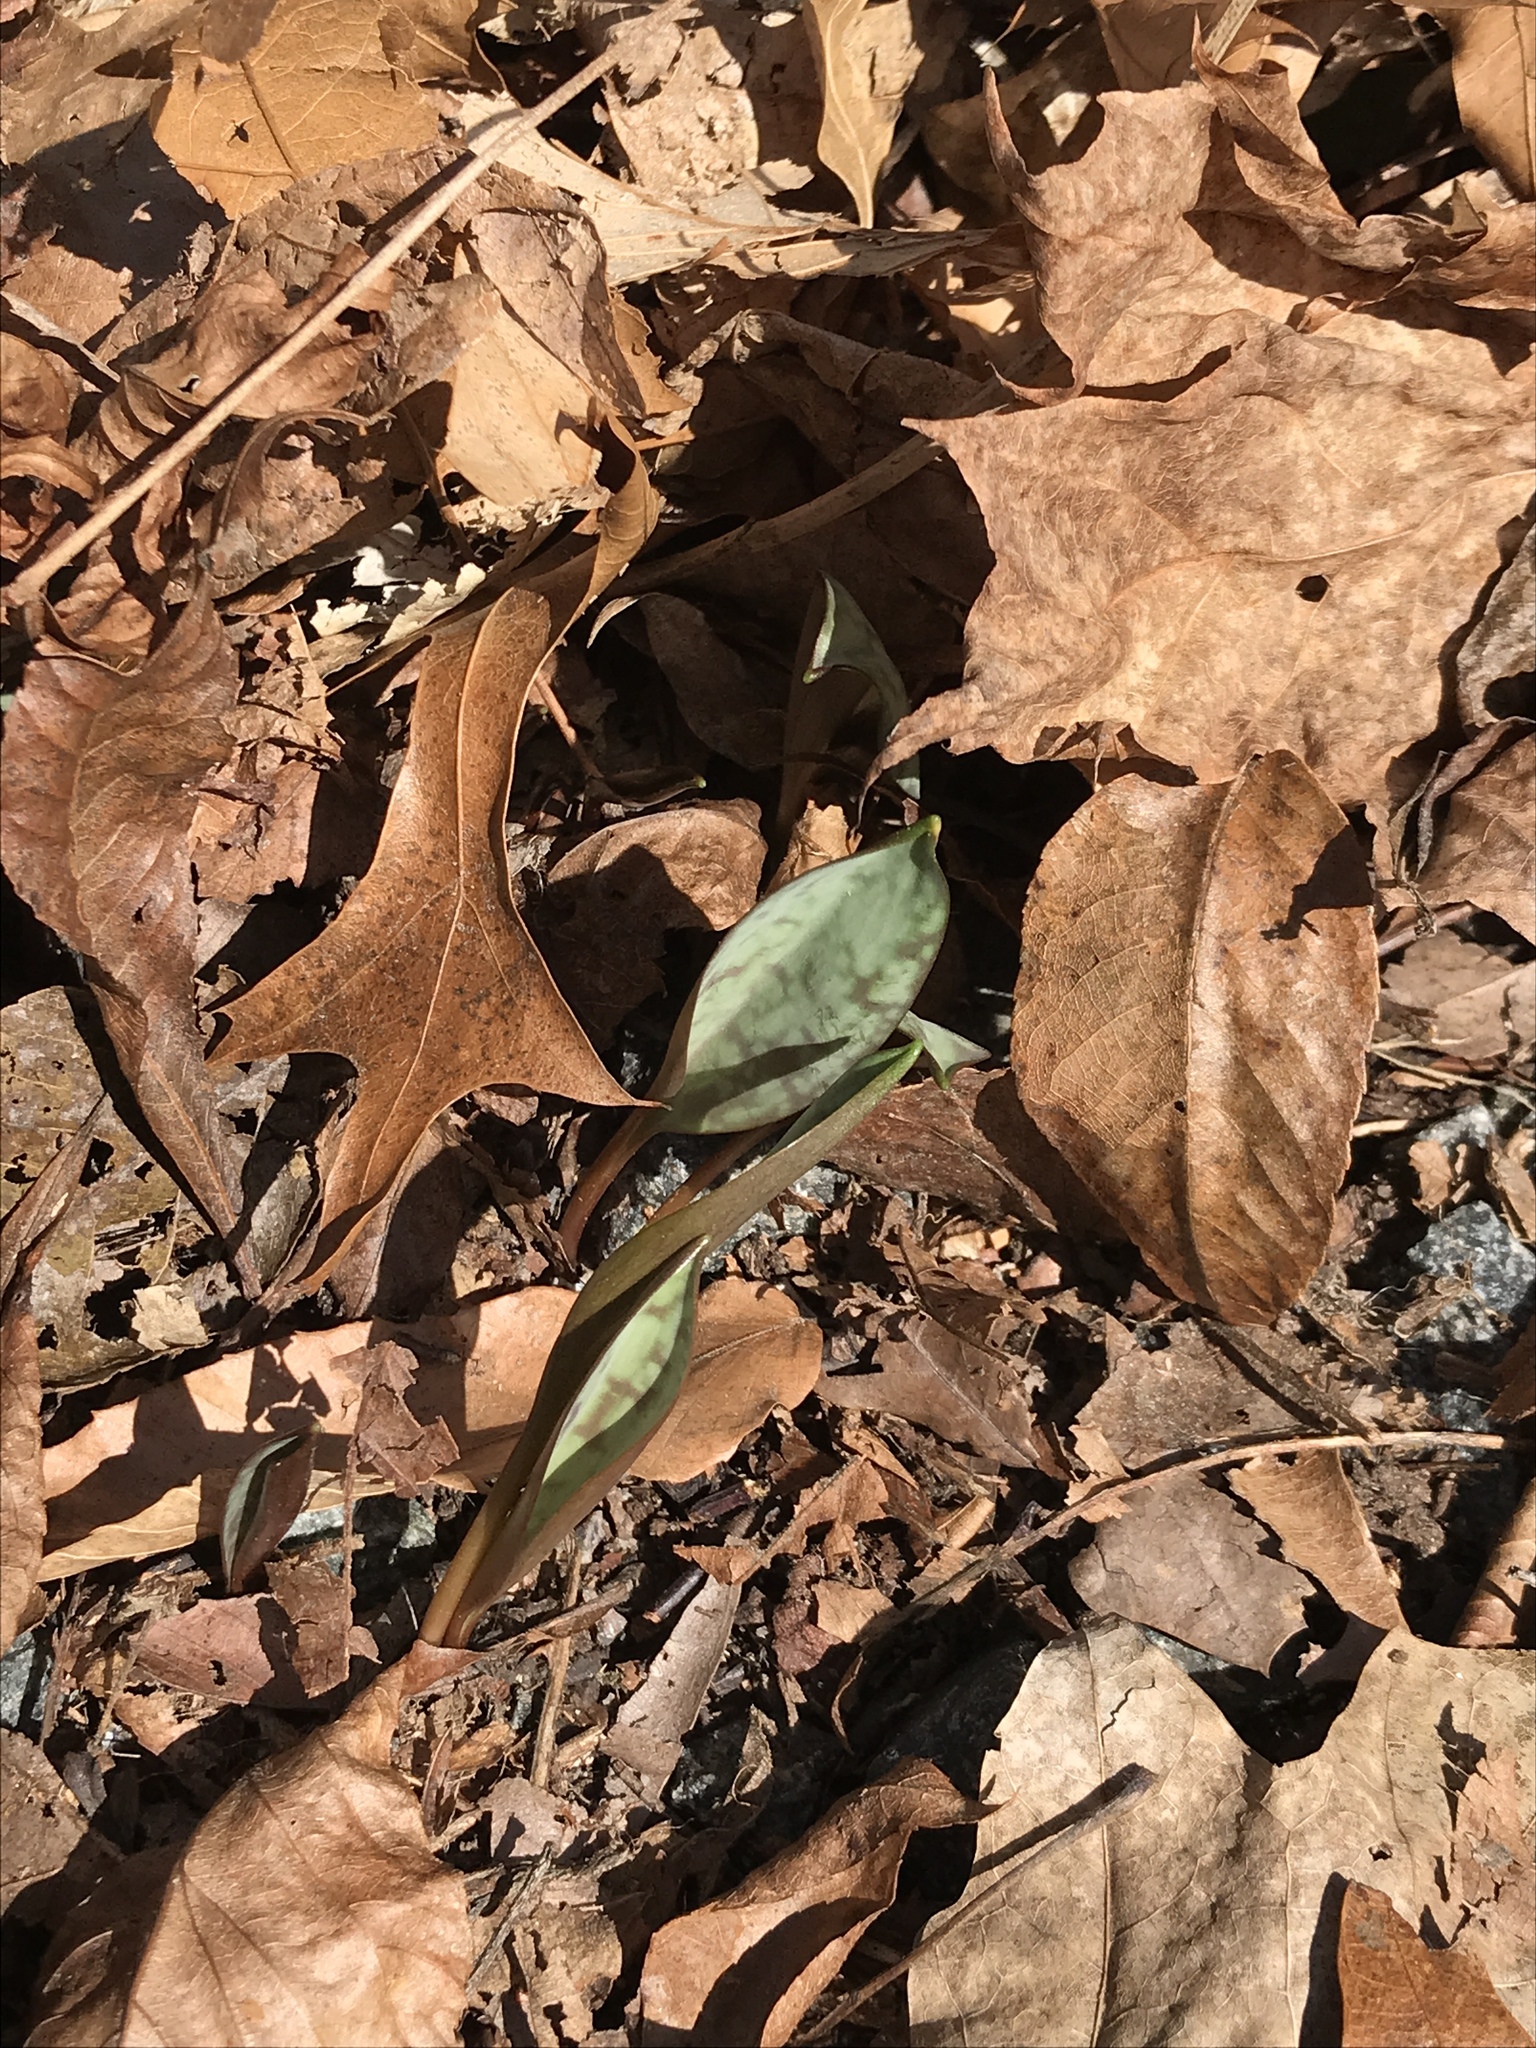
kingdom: Plantae
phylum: Tracheophyta
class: Liliopsida
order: Liliales
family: Liliaceae
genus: Erythronium
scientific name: Erythronium americanum
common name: Yellow adder's-tongue
